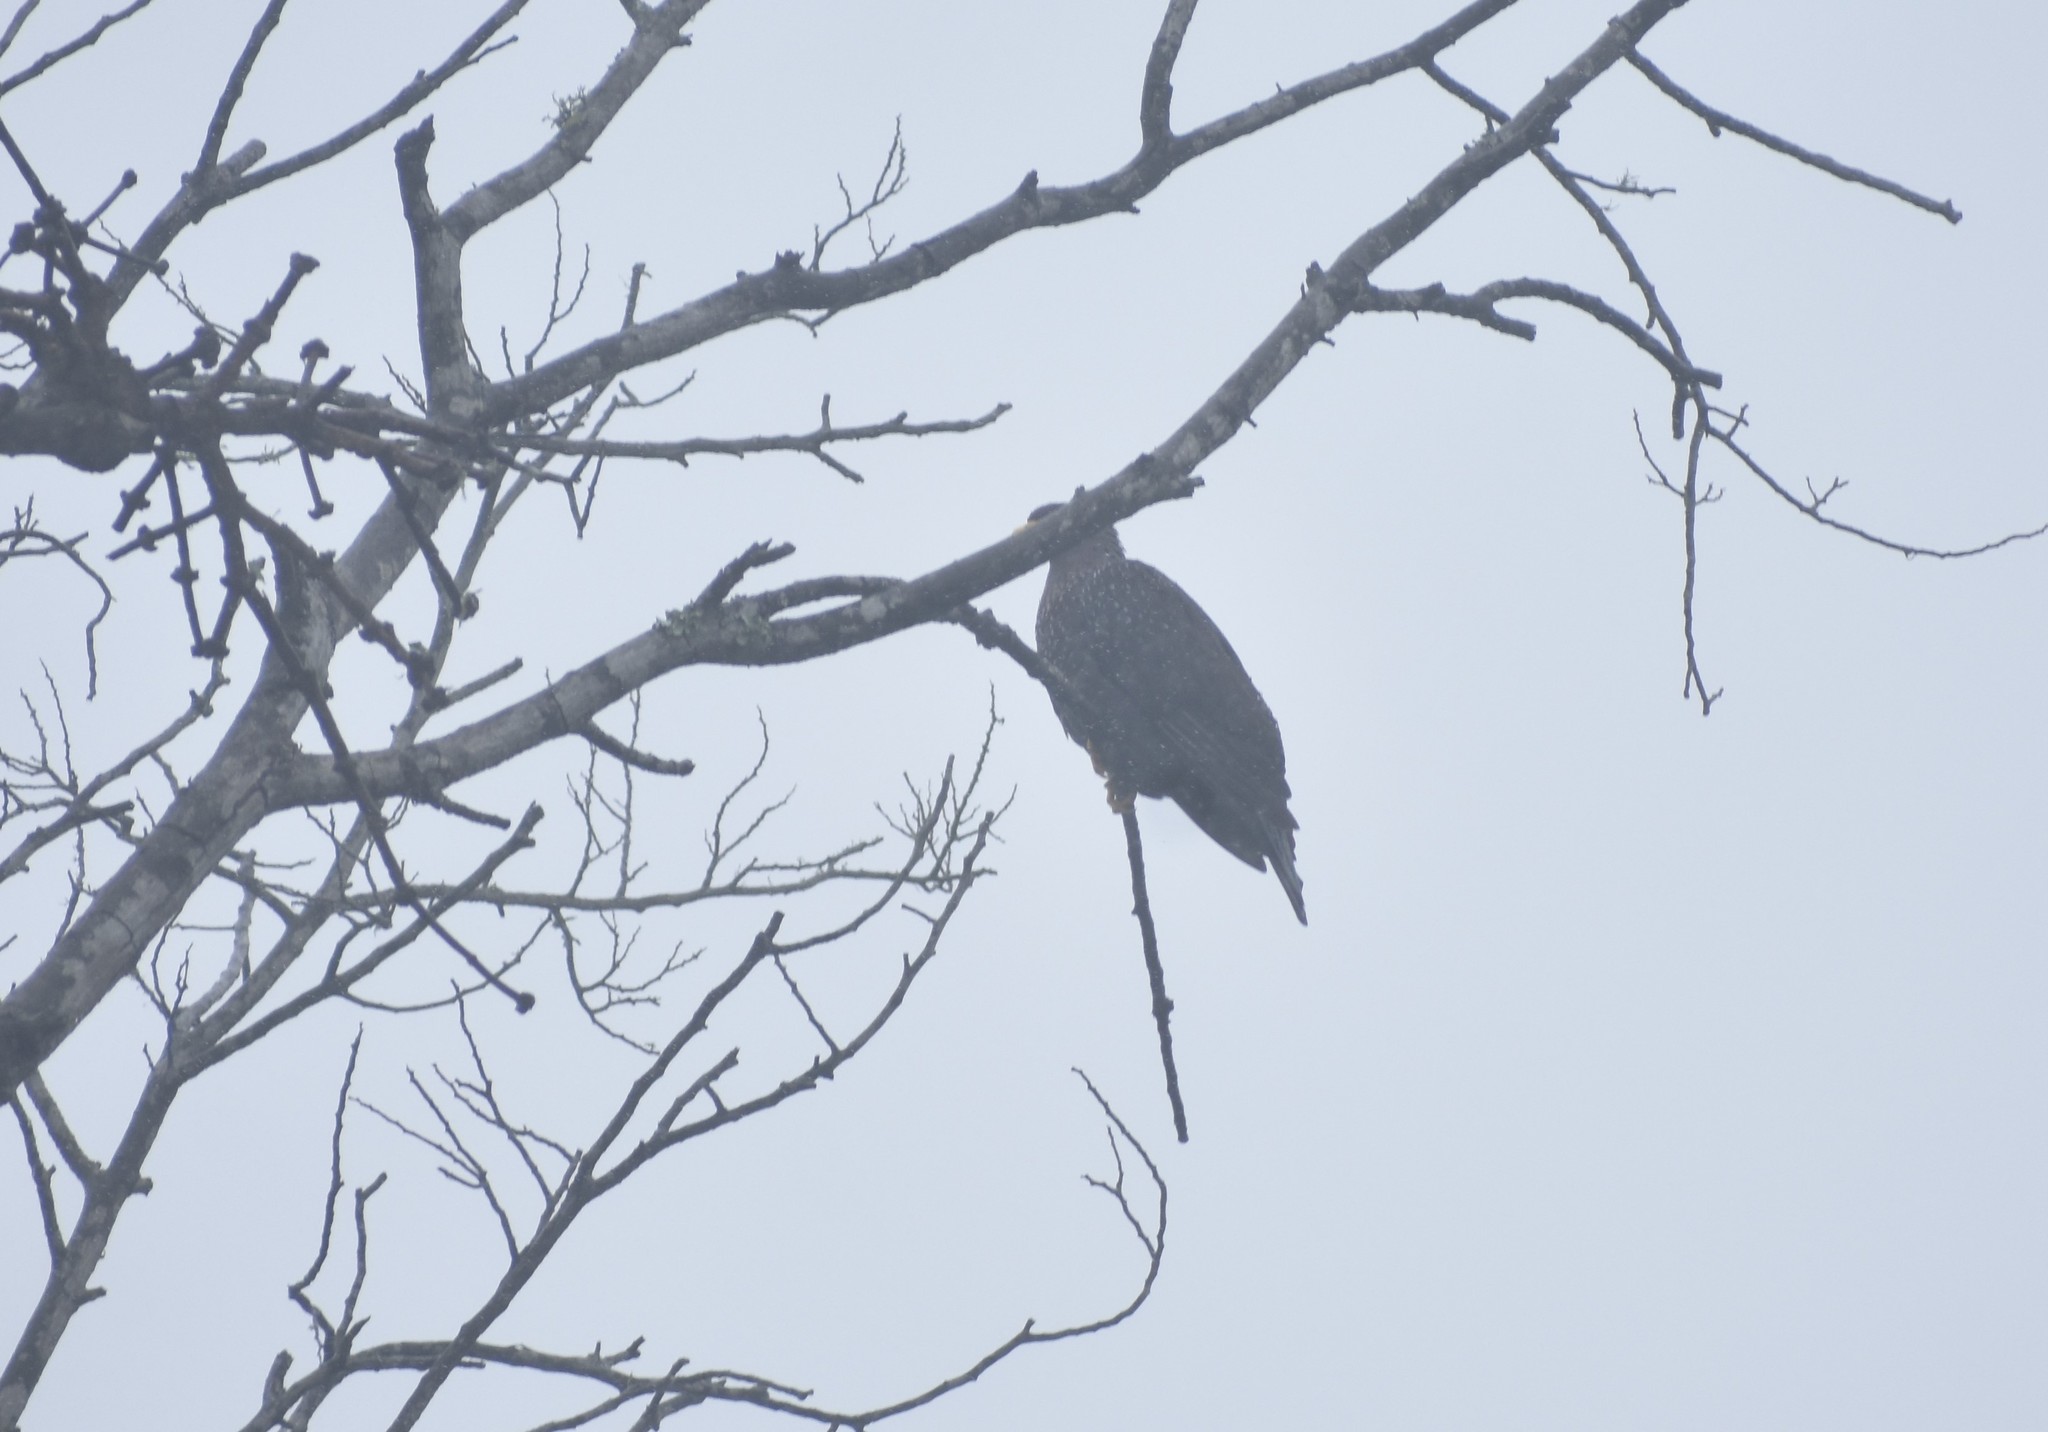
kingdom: Animalia
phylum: Chordata
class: Aves
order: Columbiformes
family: Columbidae
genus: Columba
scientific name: Columba arquatrix
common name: African olive pigeon
